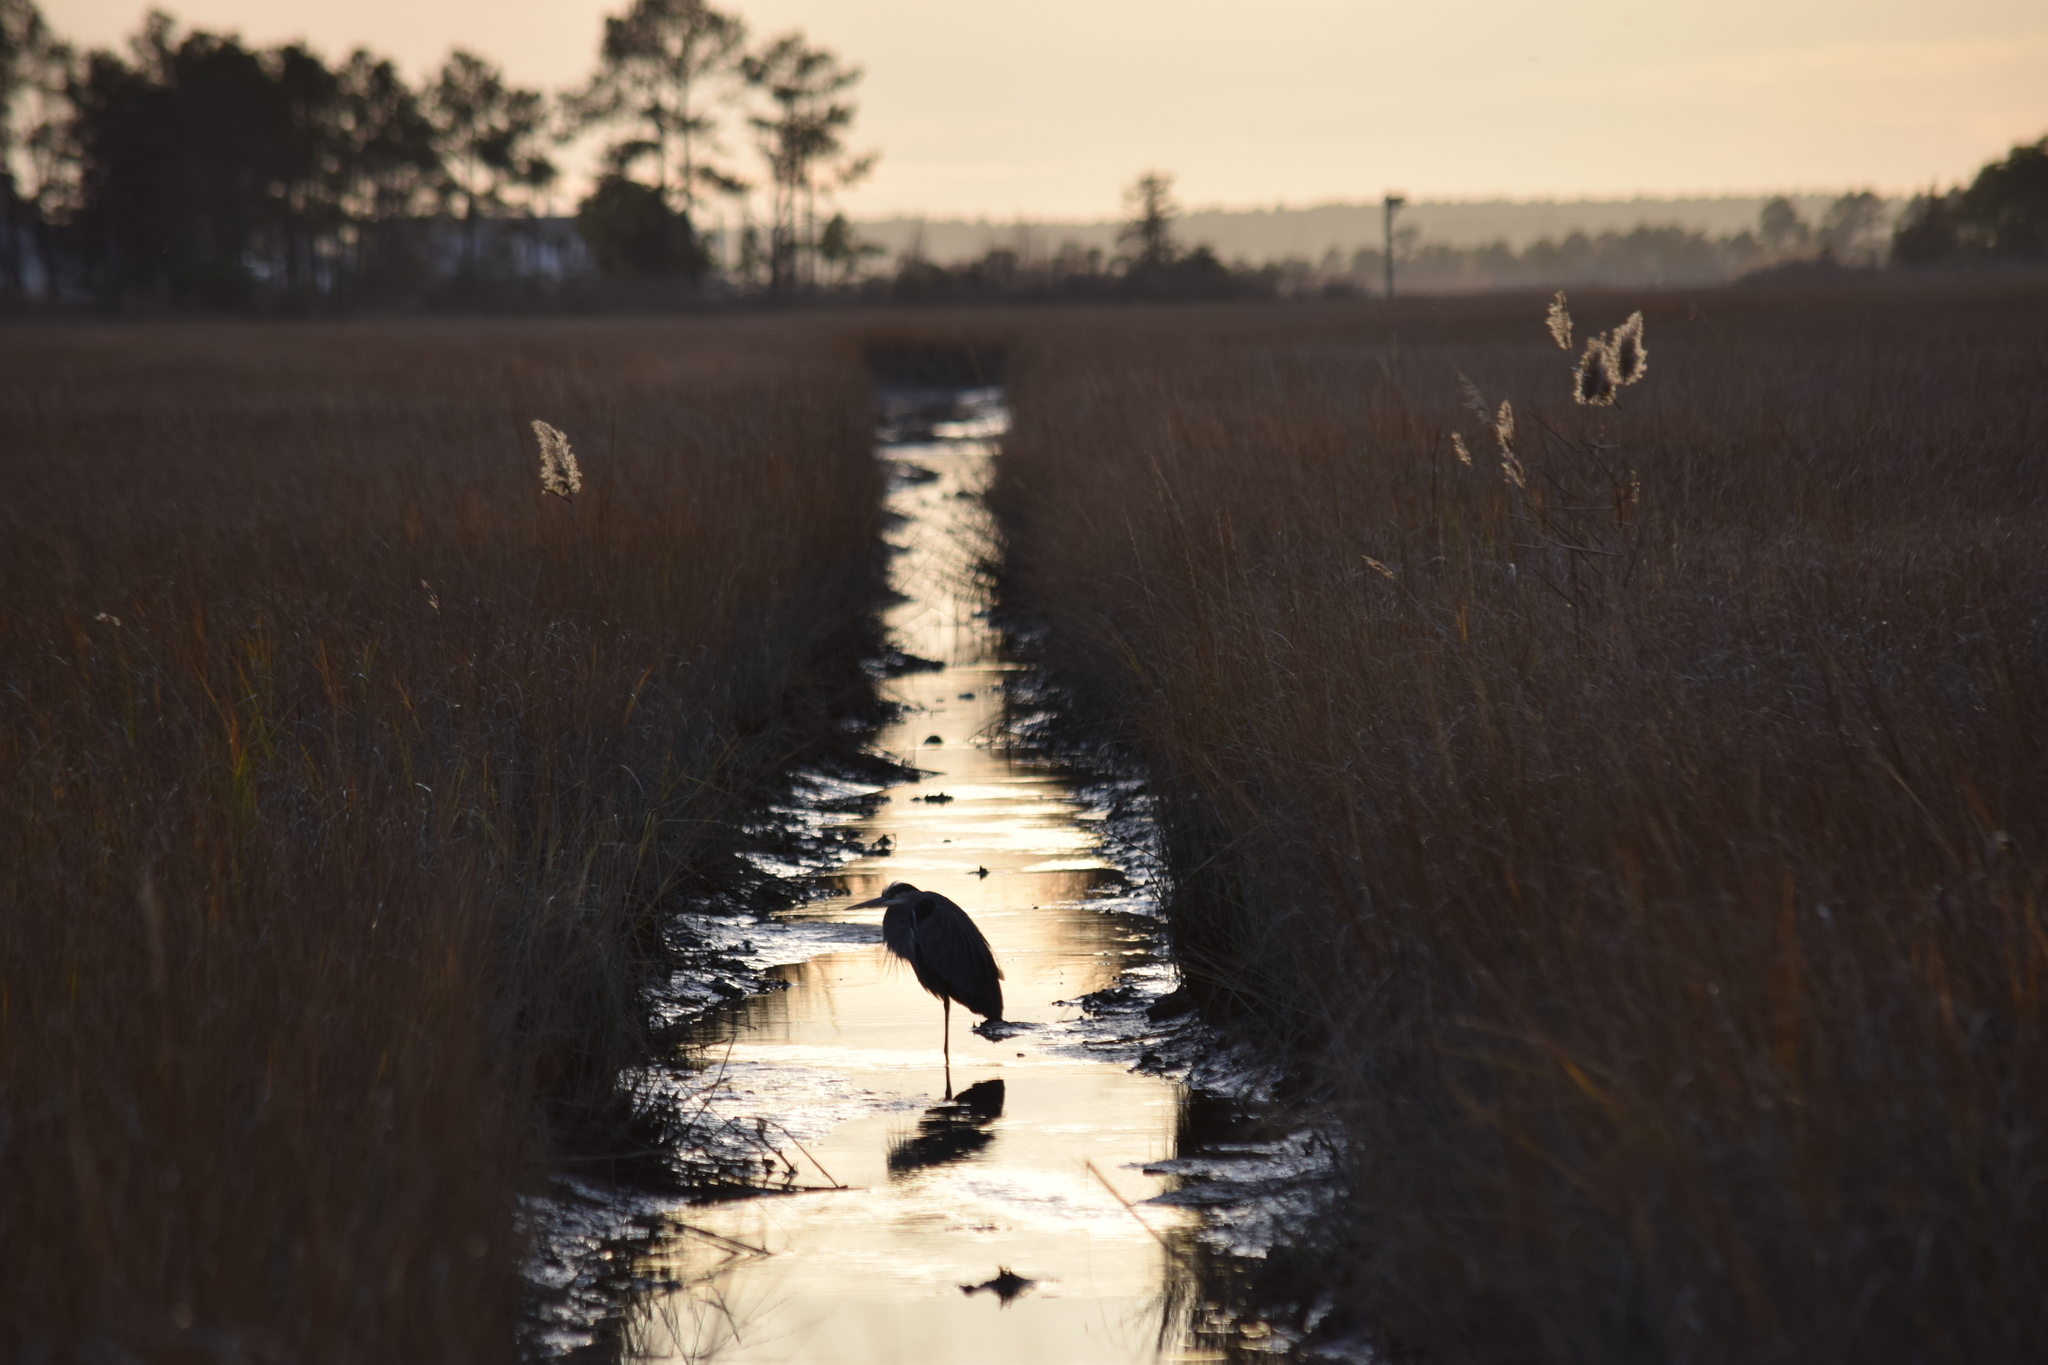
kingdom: Animalia
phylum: Chordata
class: Aves
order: Pelecaniformes
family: Ardeidae
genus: Ardea
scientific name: Ardea herodias
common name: Great blue heron
